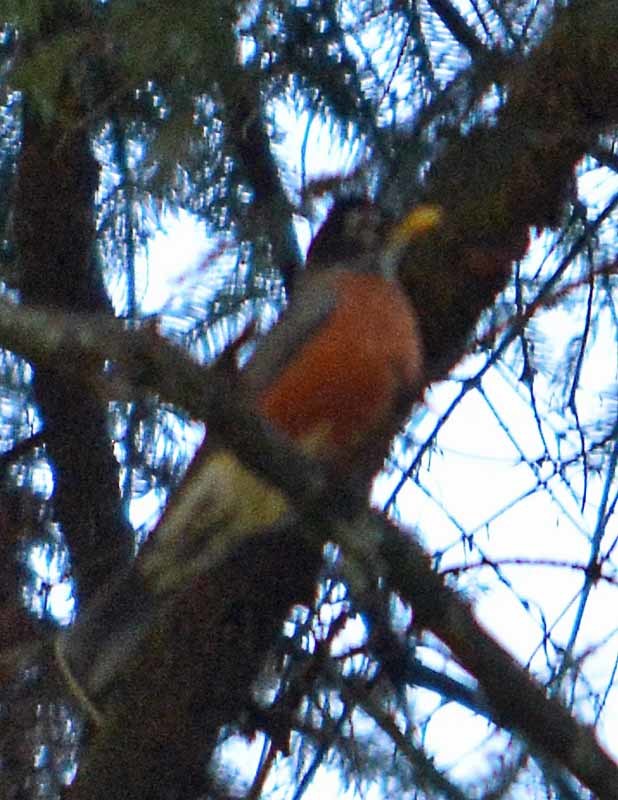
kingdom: Animalia
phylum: Chordata
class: Aves
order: Passeriformes
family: Turdidae
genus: Turdus
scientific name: Turdus migratorius
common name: American robin
